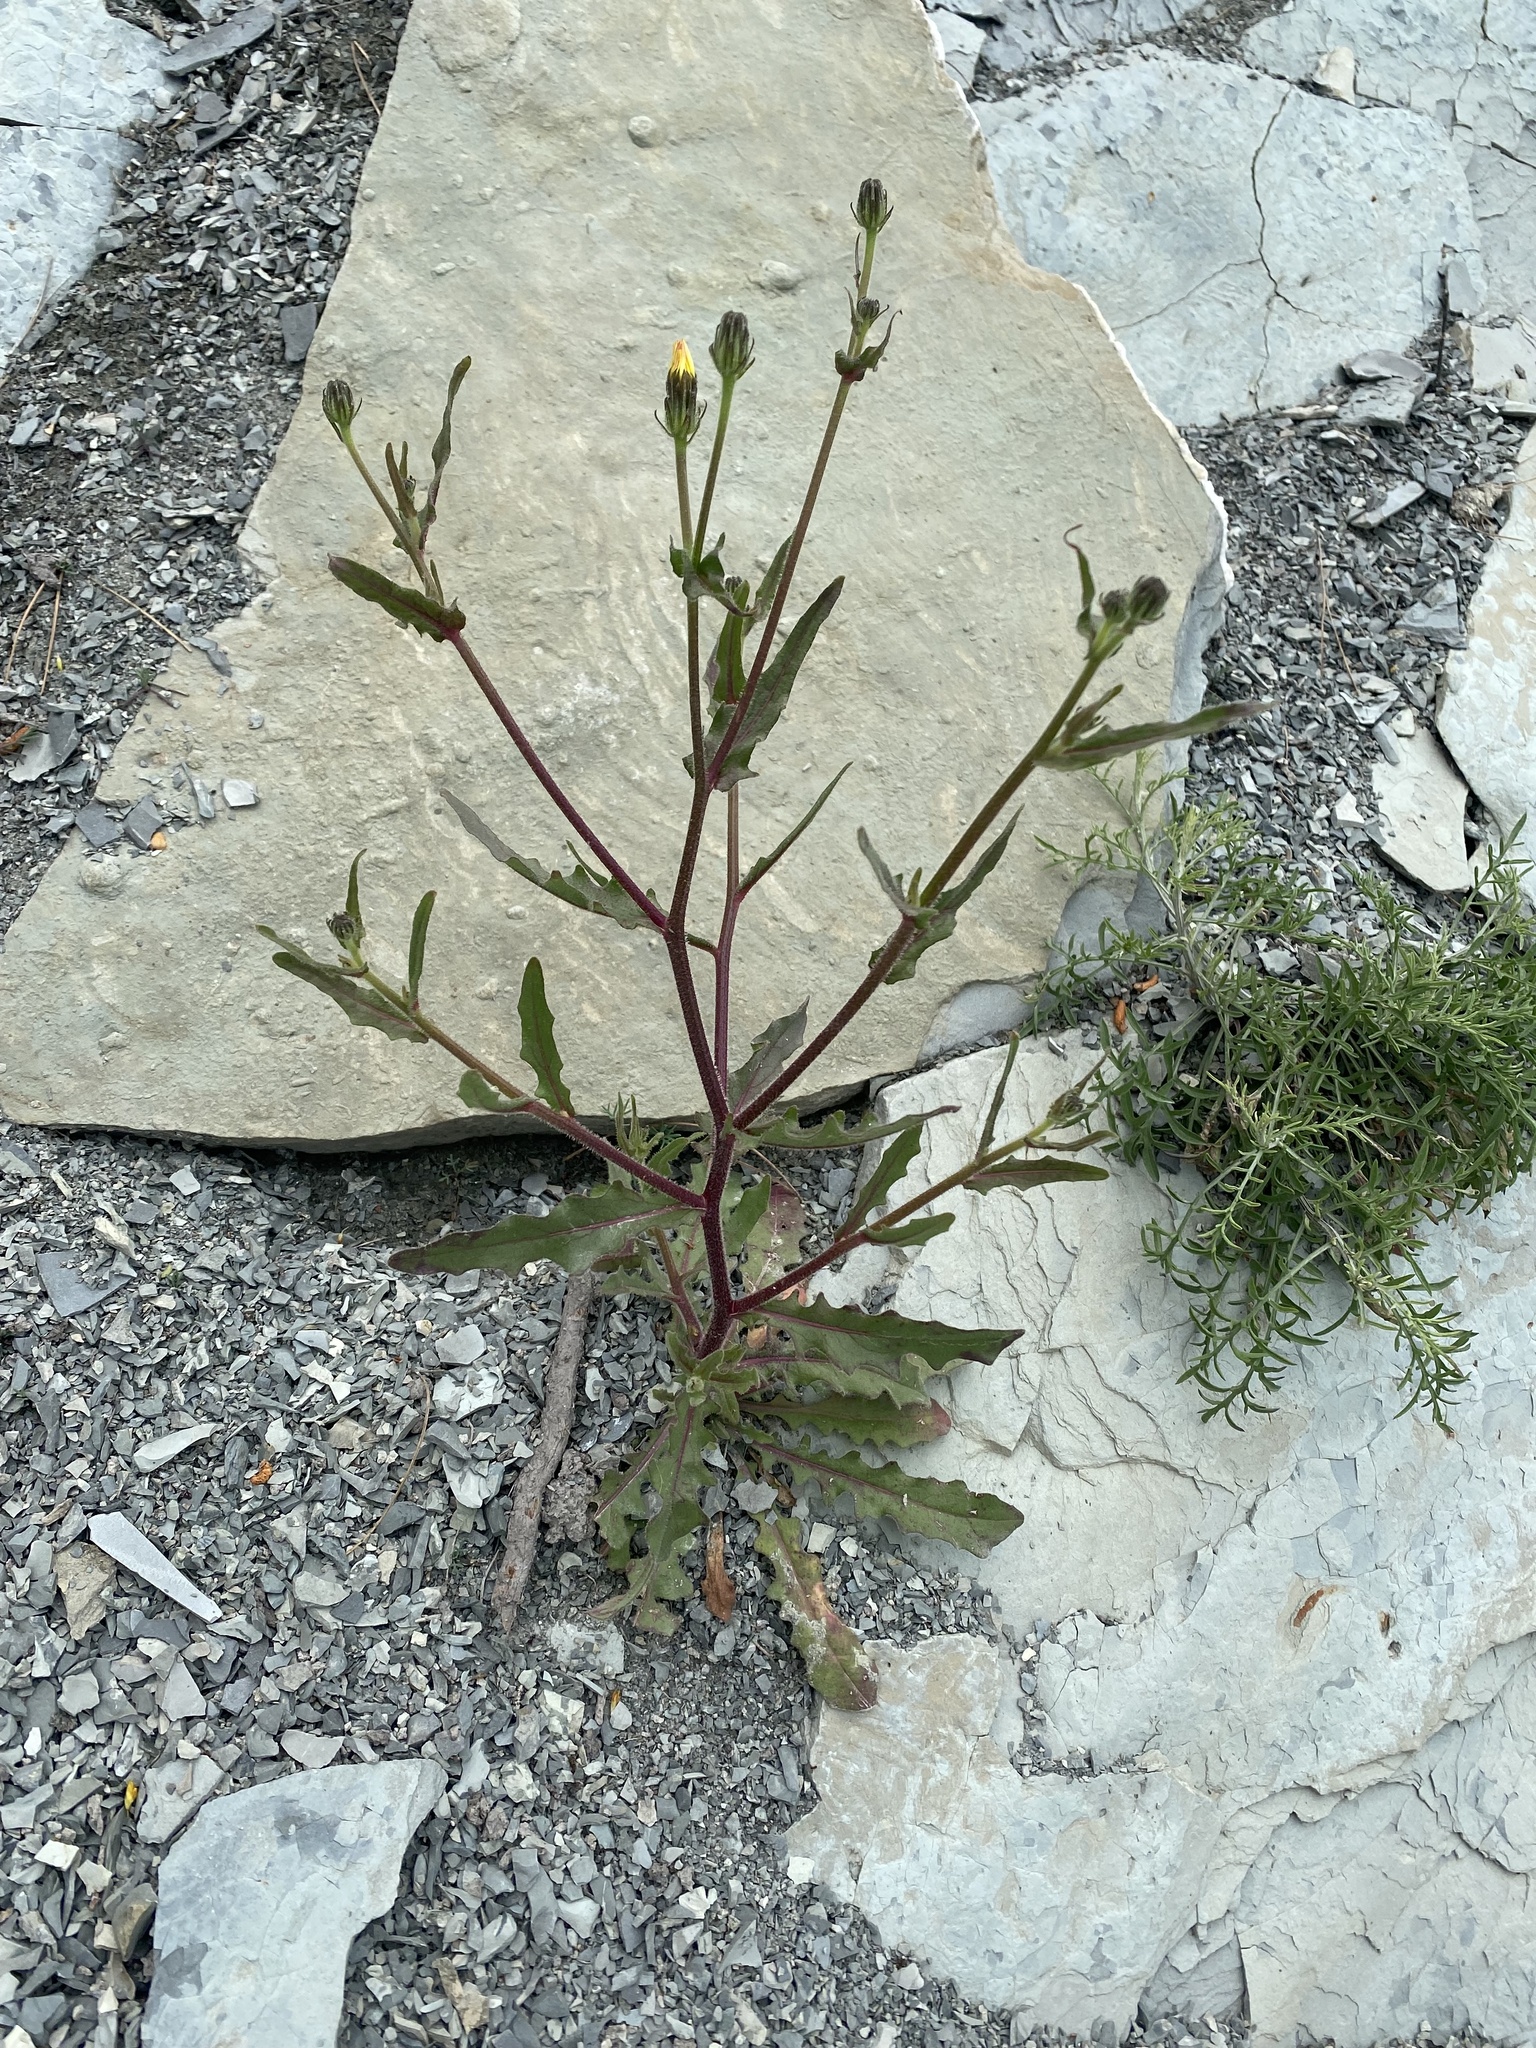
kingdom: Plantae
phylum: Tracheophyta
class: Magnoliopsida
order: Asterales
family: Asteraceae
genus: Picris
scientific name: Picris pauciflora
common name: Smallflower oxtongue
